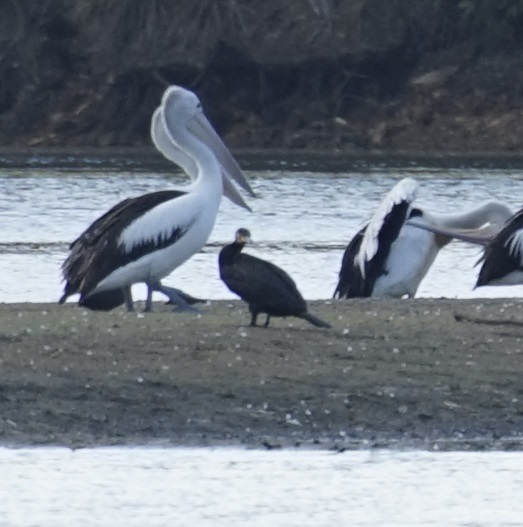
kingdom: Animalia
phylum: Chordata
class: Aves
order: Suliformes
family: Phalacrocoracidae
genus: Phalacrocorax
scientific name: Phalacrocorax carbo
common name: Great cormorant
